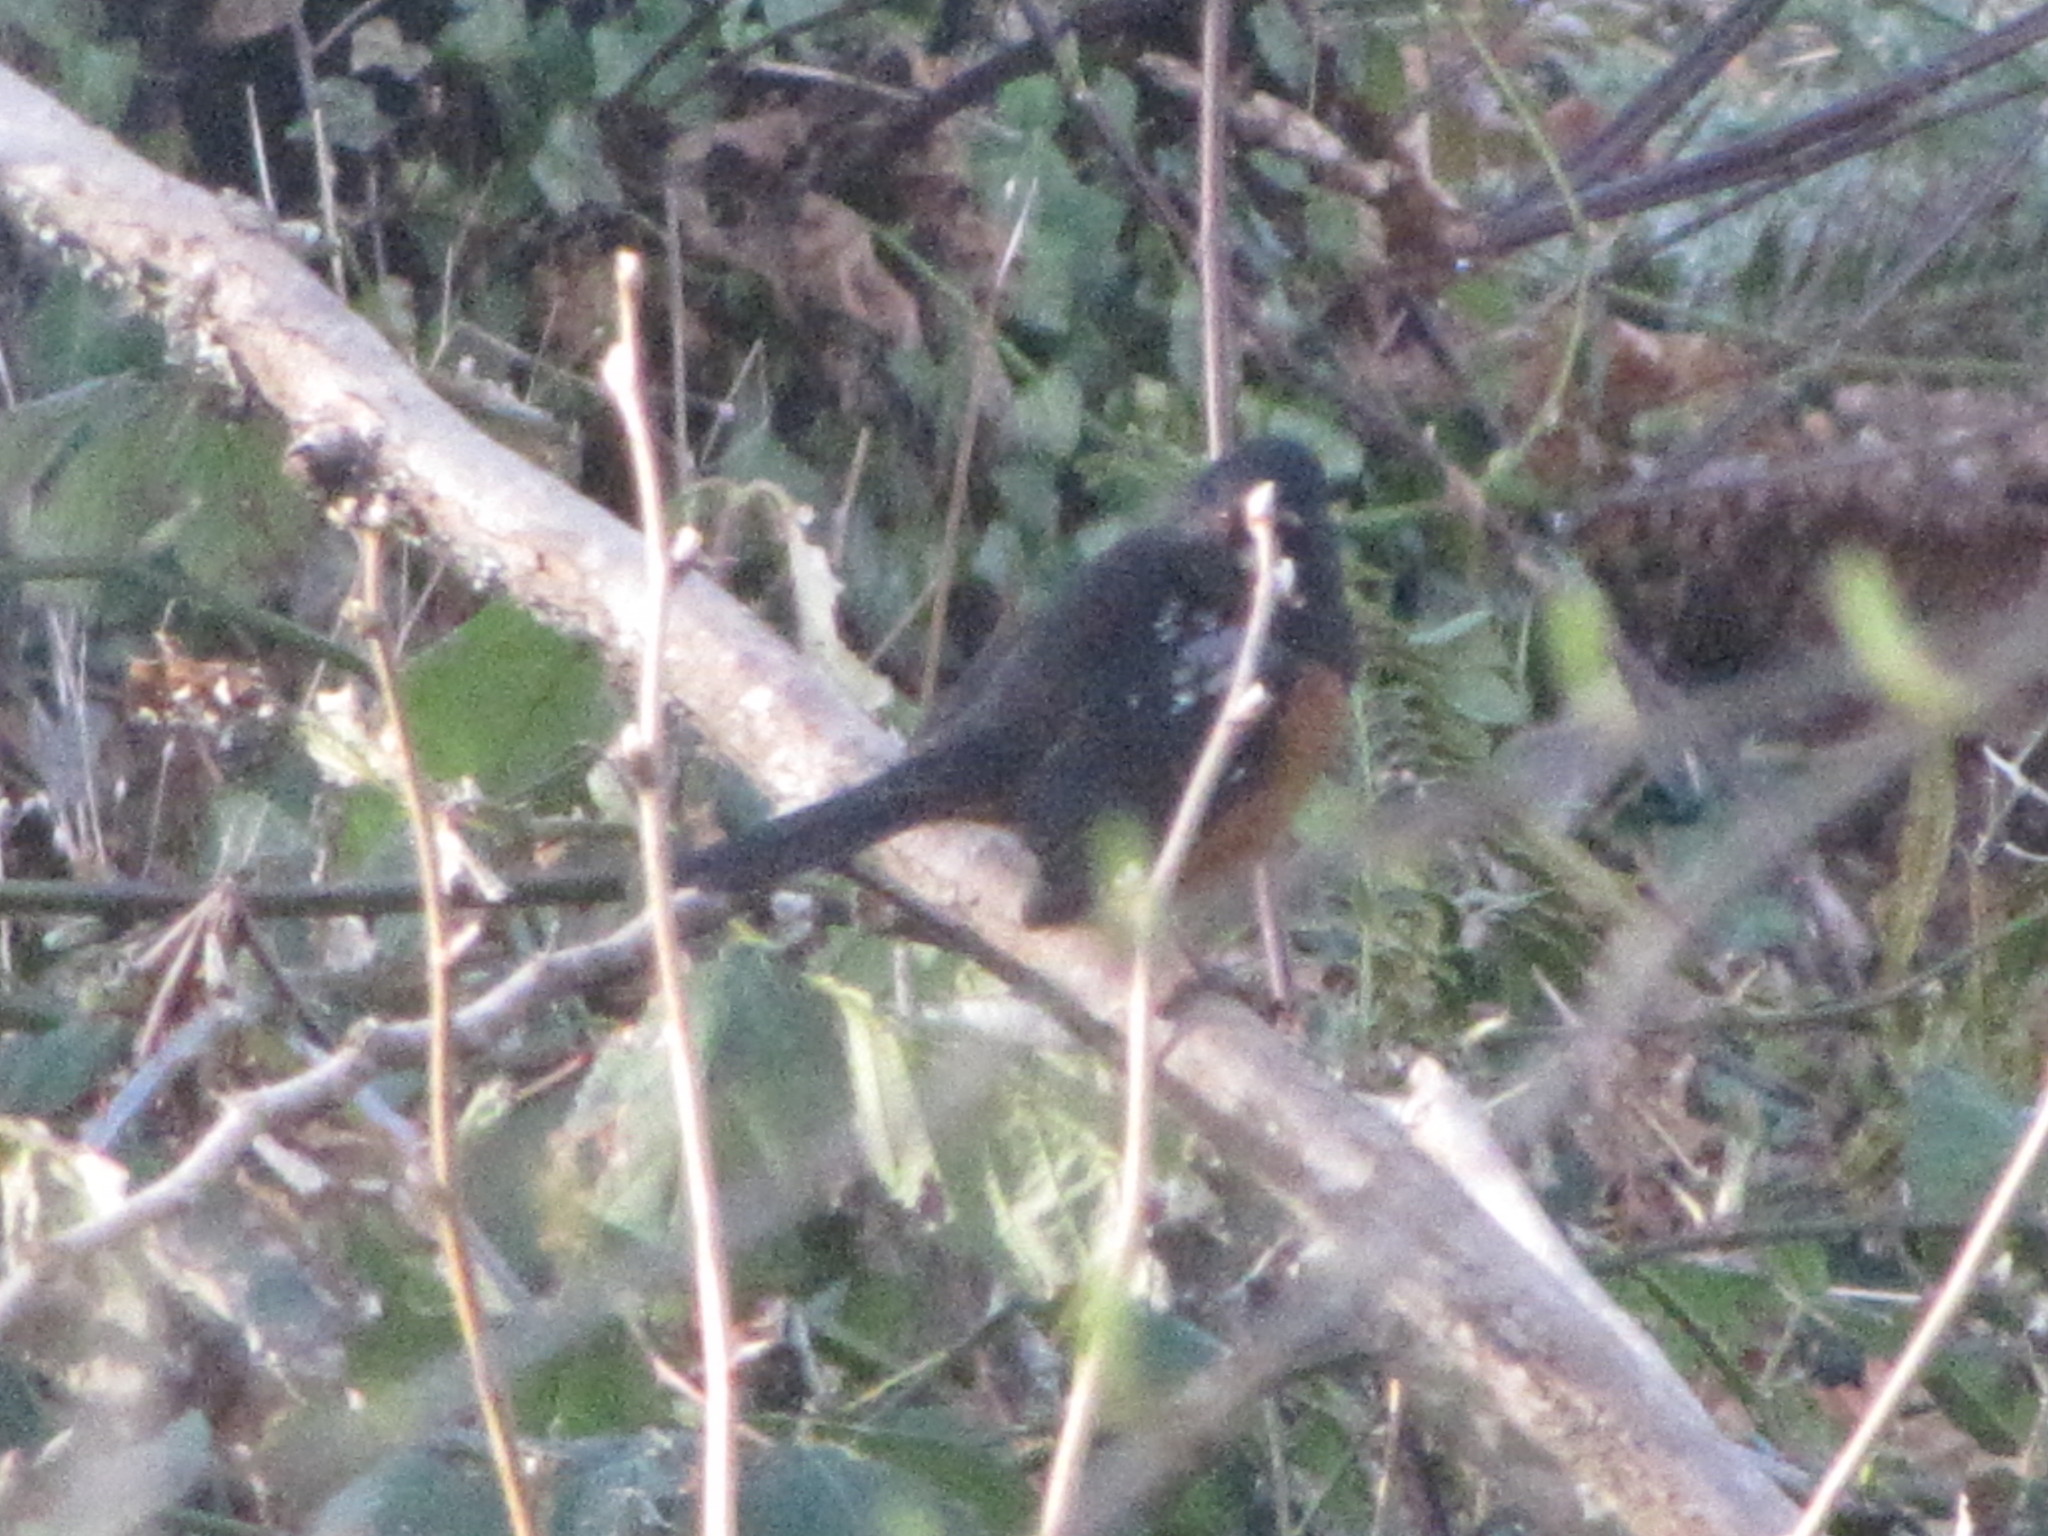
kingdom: Animalia
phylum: Chordata
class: Aves
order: Passeriformes
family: Passerellidae
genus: Pipilo
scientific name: Pipilo maculatus
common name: Spotted towhee
